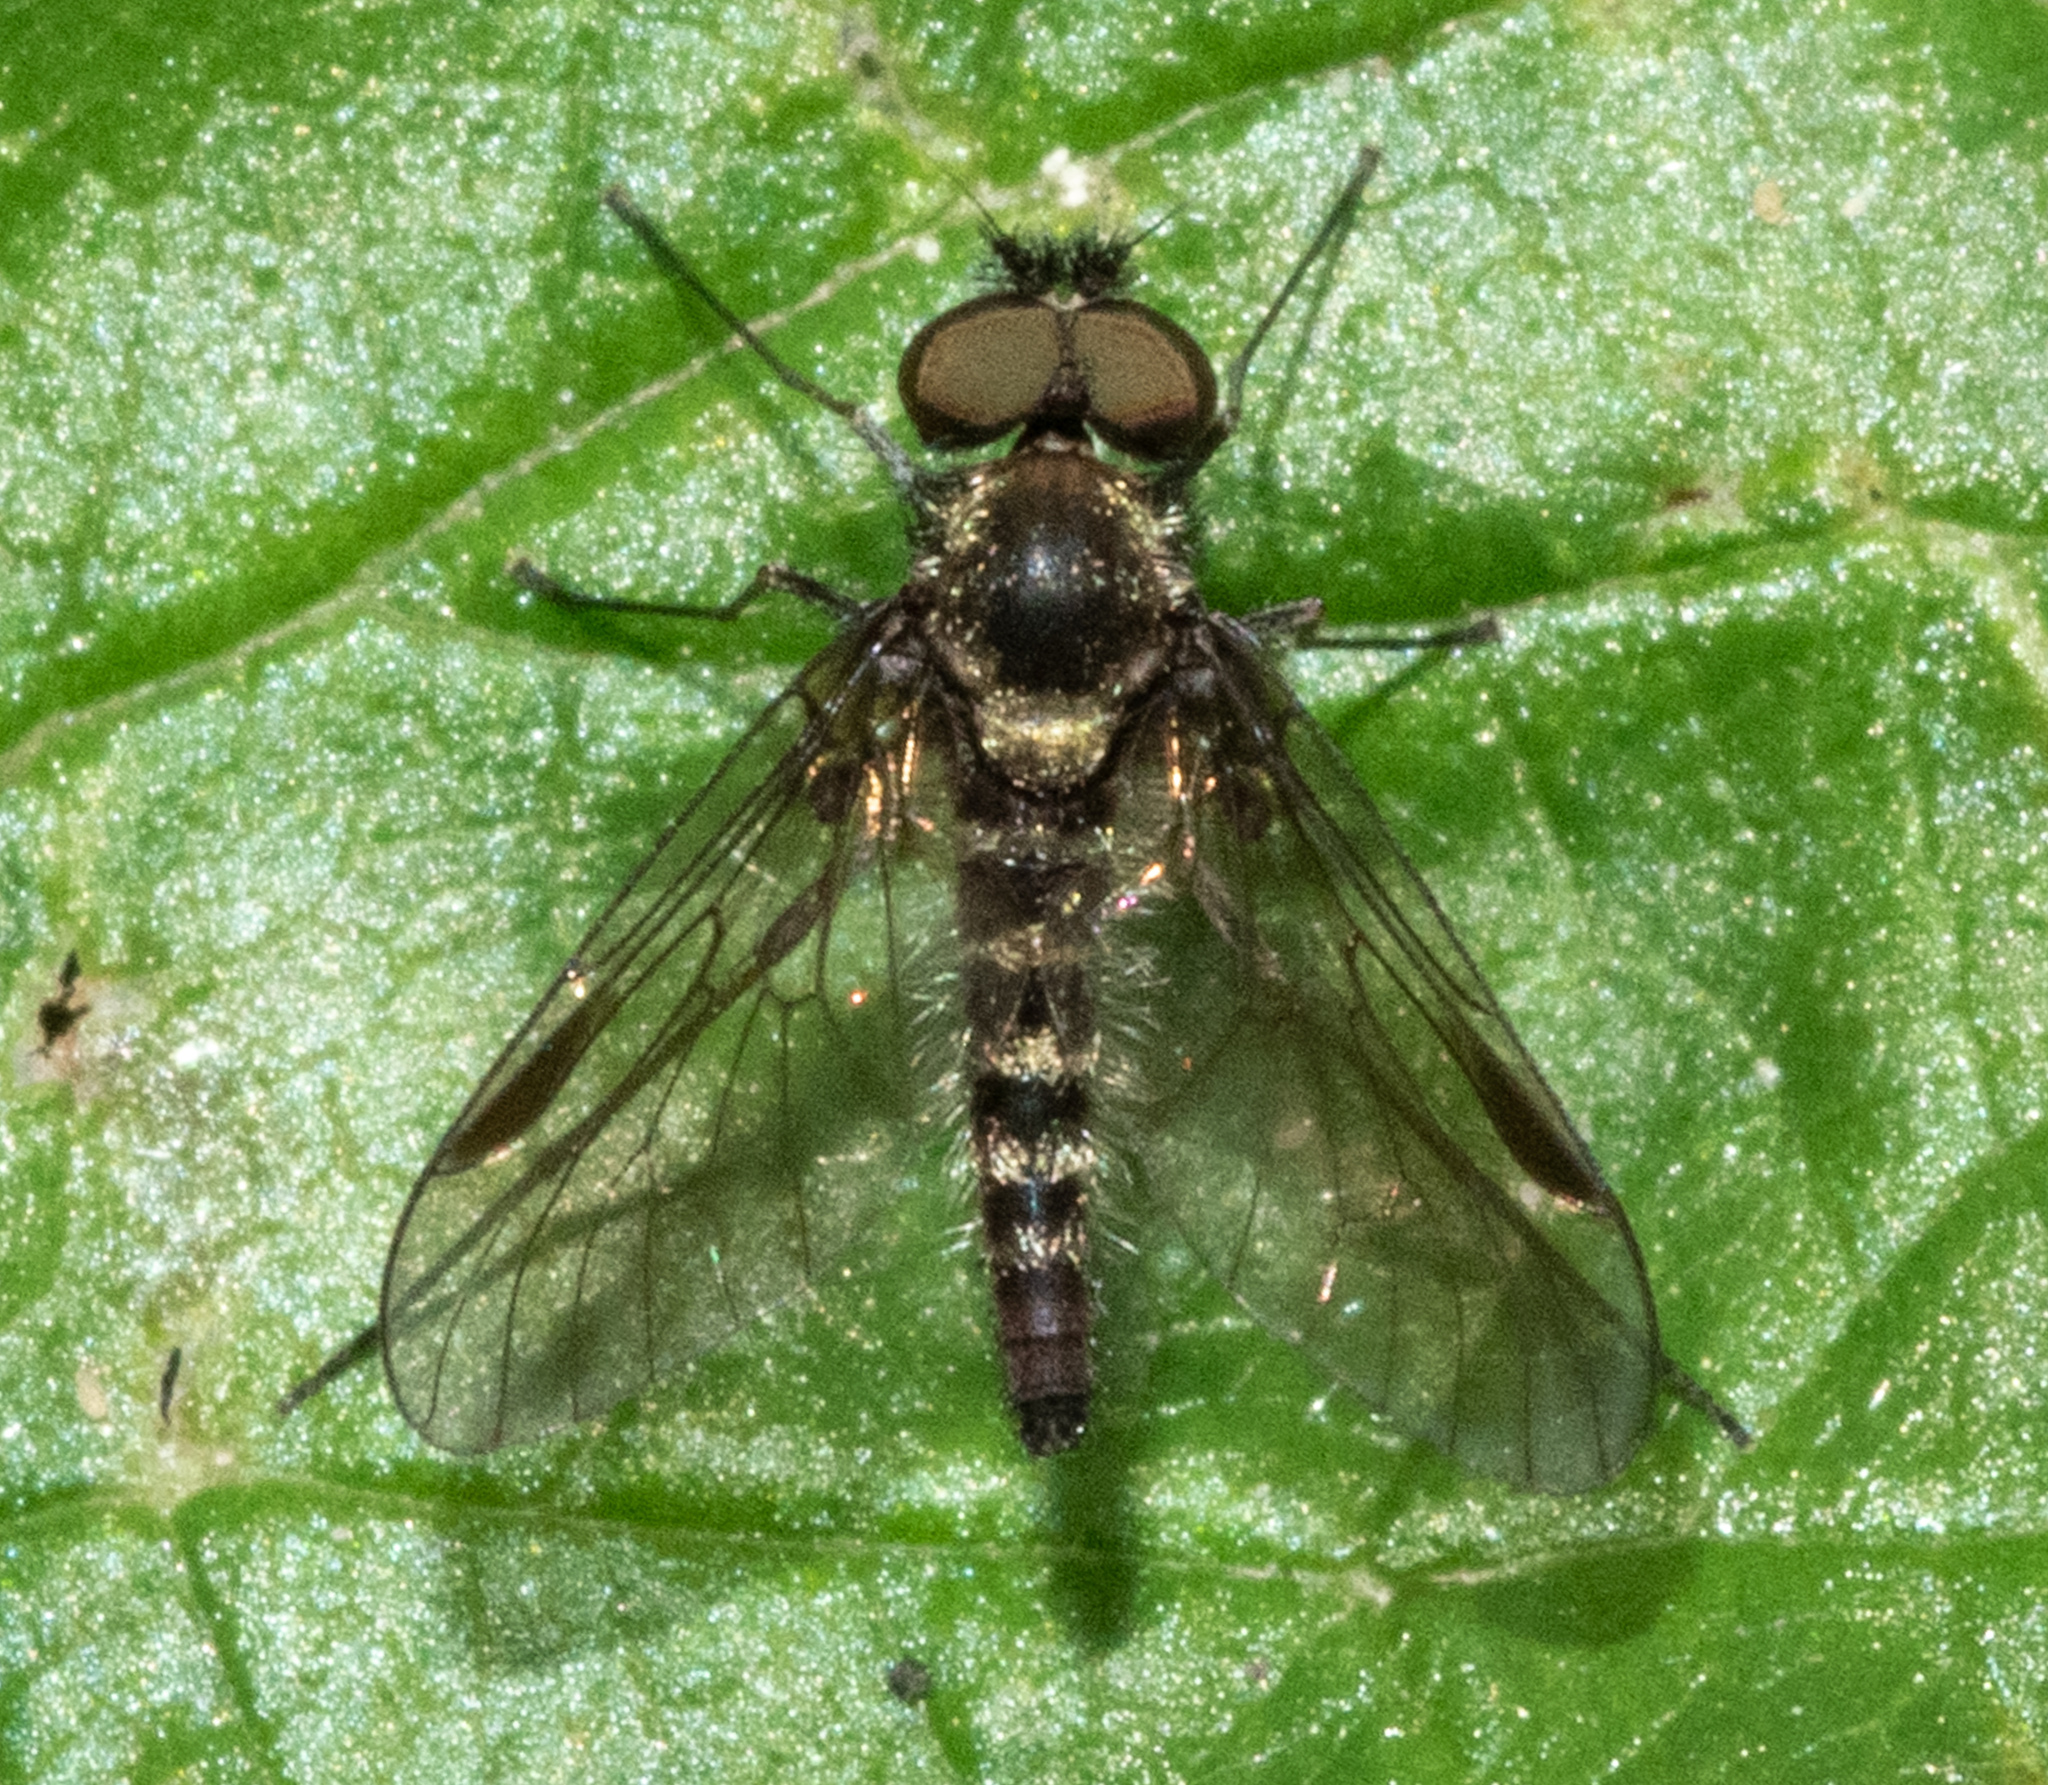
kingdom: Animalia
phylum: Arthropoda
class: Insecta
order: Diptera
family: Rhagionidae
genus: Chrysopilus
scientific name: Chrysopilus tomentosus
